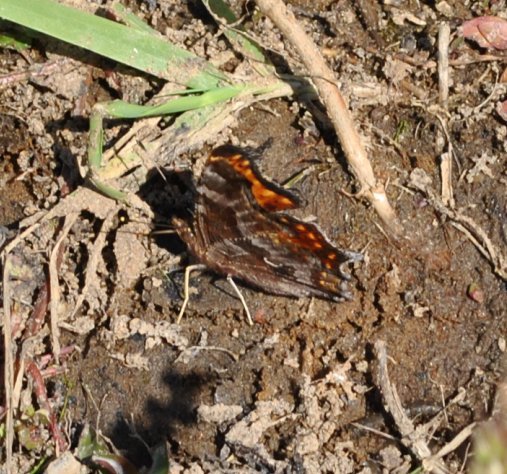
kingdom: Animalia
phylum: Arthropoda
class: Insecta
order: Lepidoptera
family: Nymphalidae
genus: Polygonia
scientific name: Polygonia comma
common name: Eastern comma
